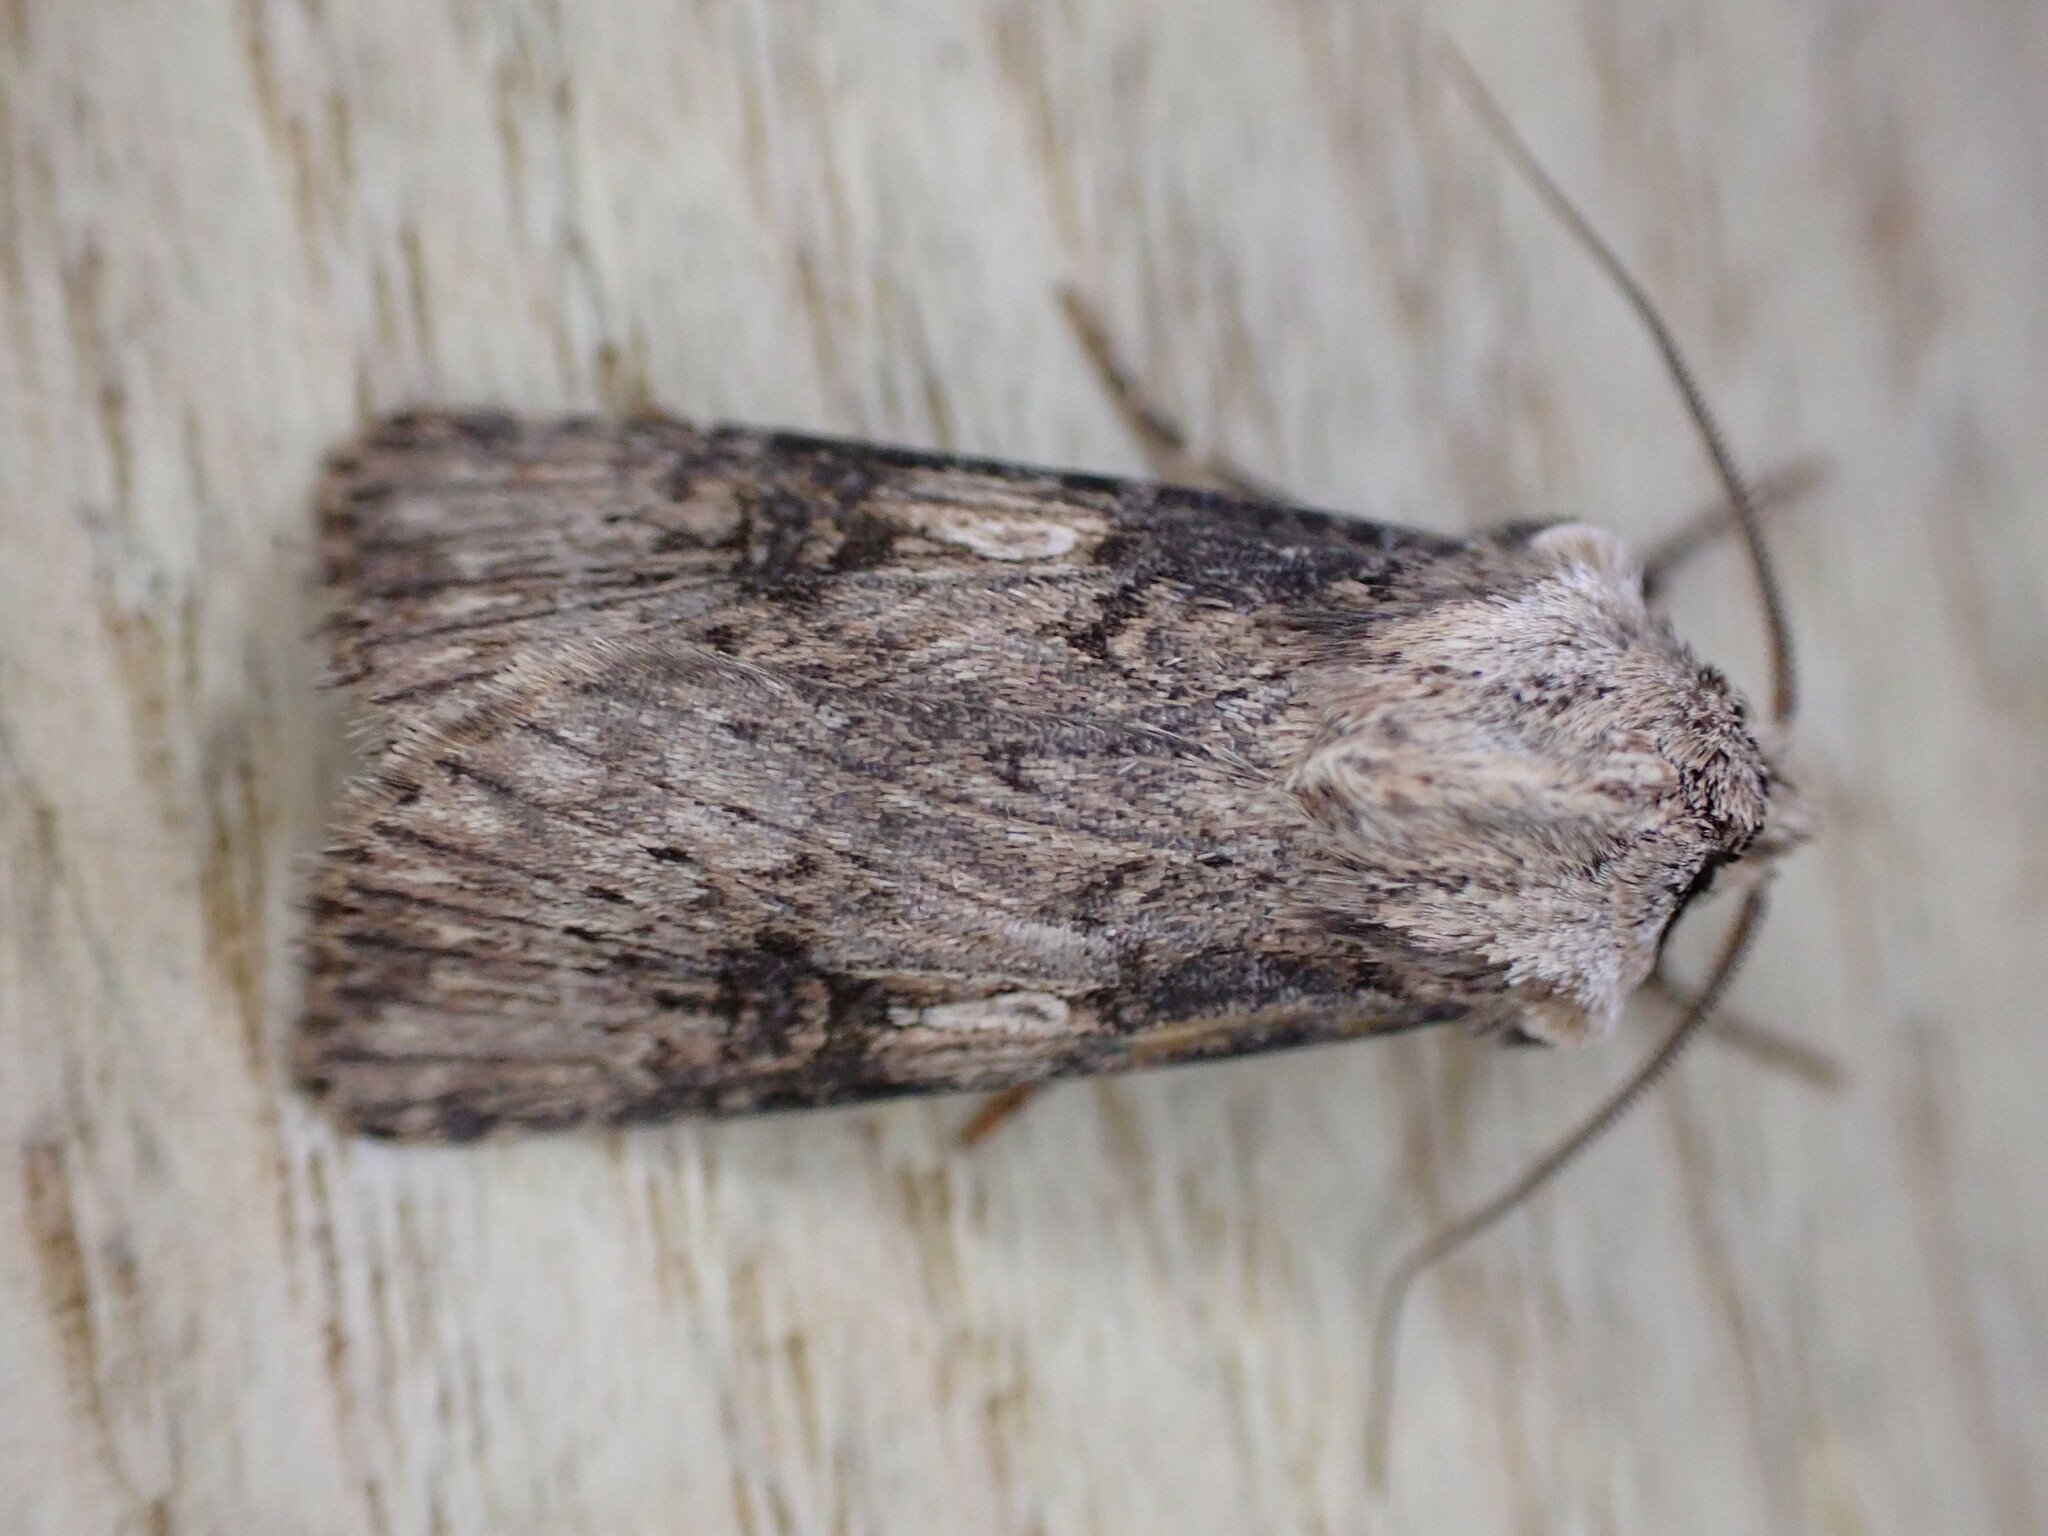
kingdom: Animalia
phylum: Arthropoda
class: Insecta
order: Lepidoptera
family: Noctuidae
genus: Agrotis
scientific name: Agrotis puta
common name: Shuttle-shaped dart
